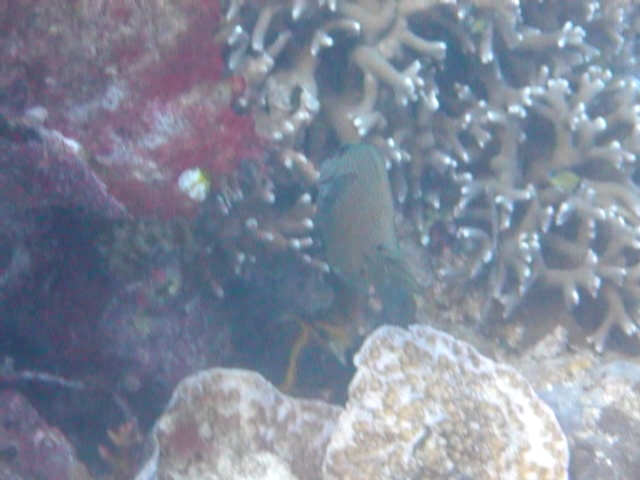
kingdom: Animalia
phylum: Chordata
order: Perciformes
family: Acanthuridae
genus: Ctenochaetus
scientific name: Ctenochaetus binotatus
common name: Two-spot bristletooth
